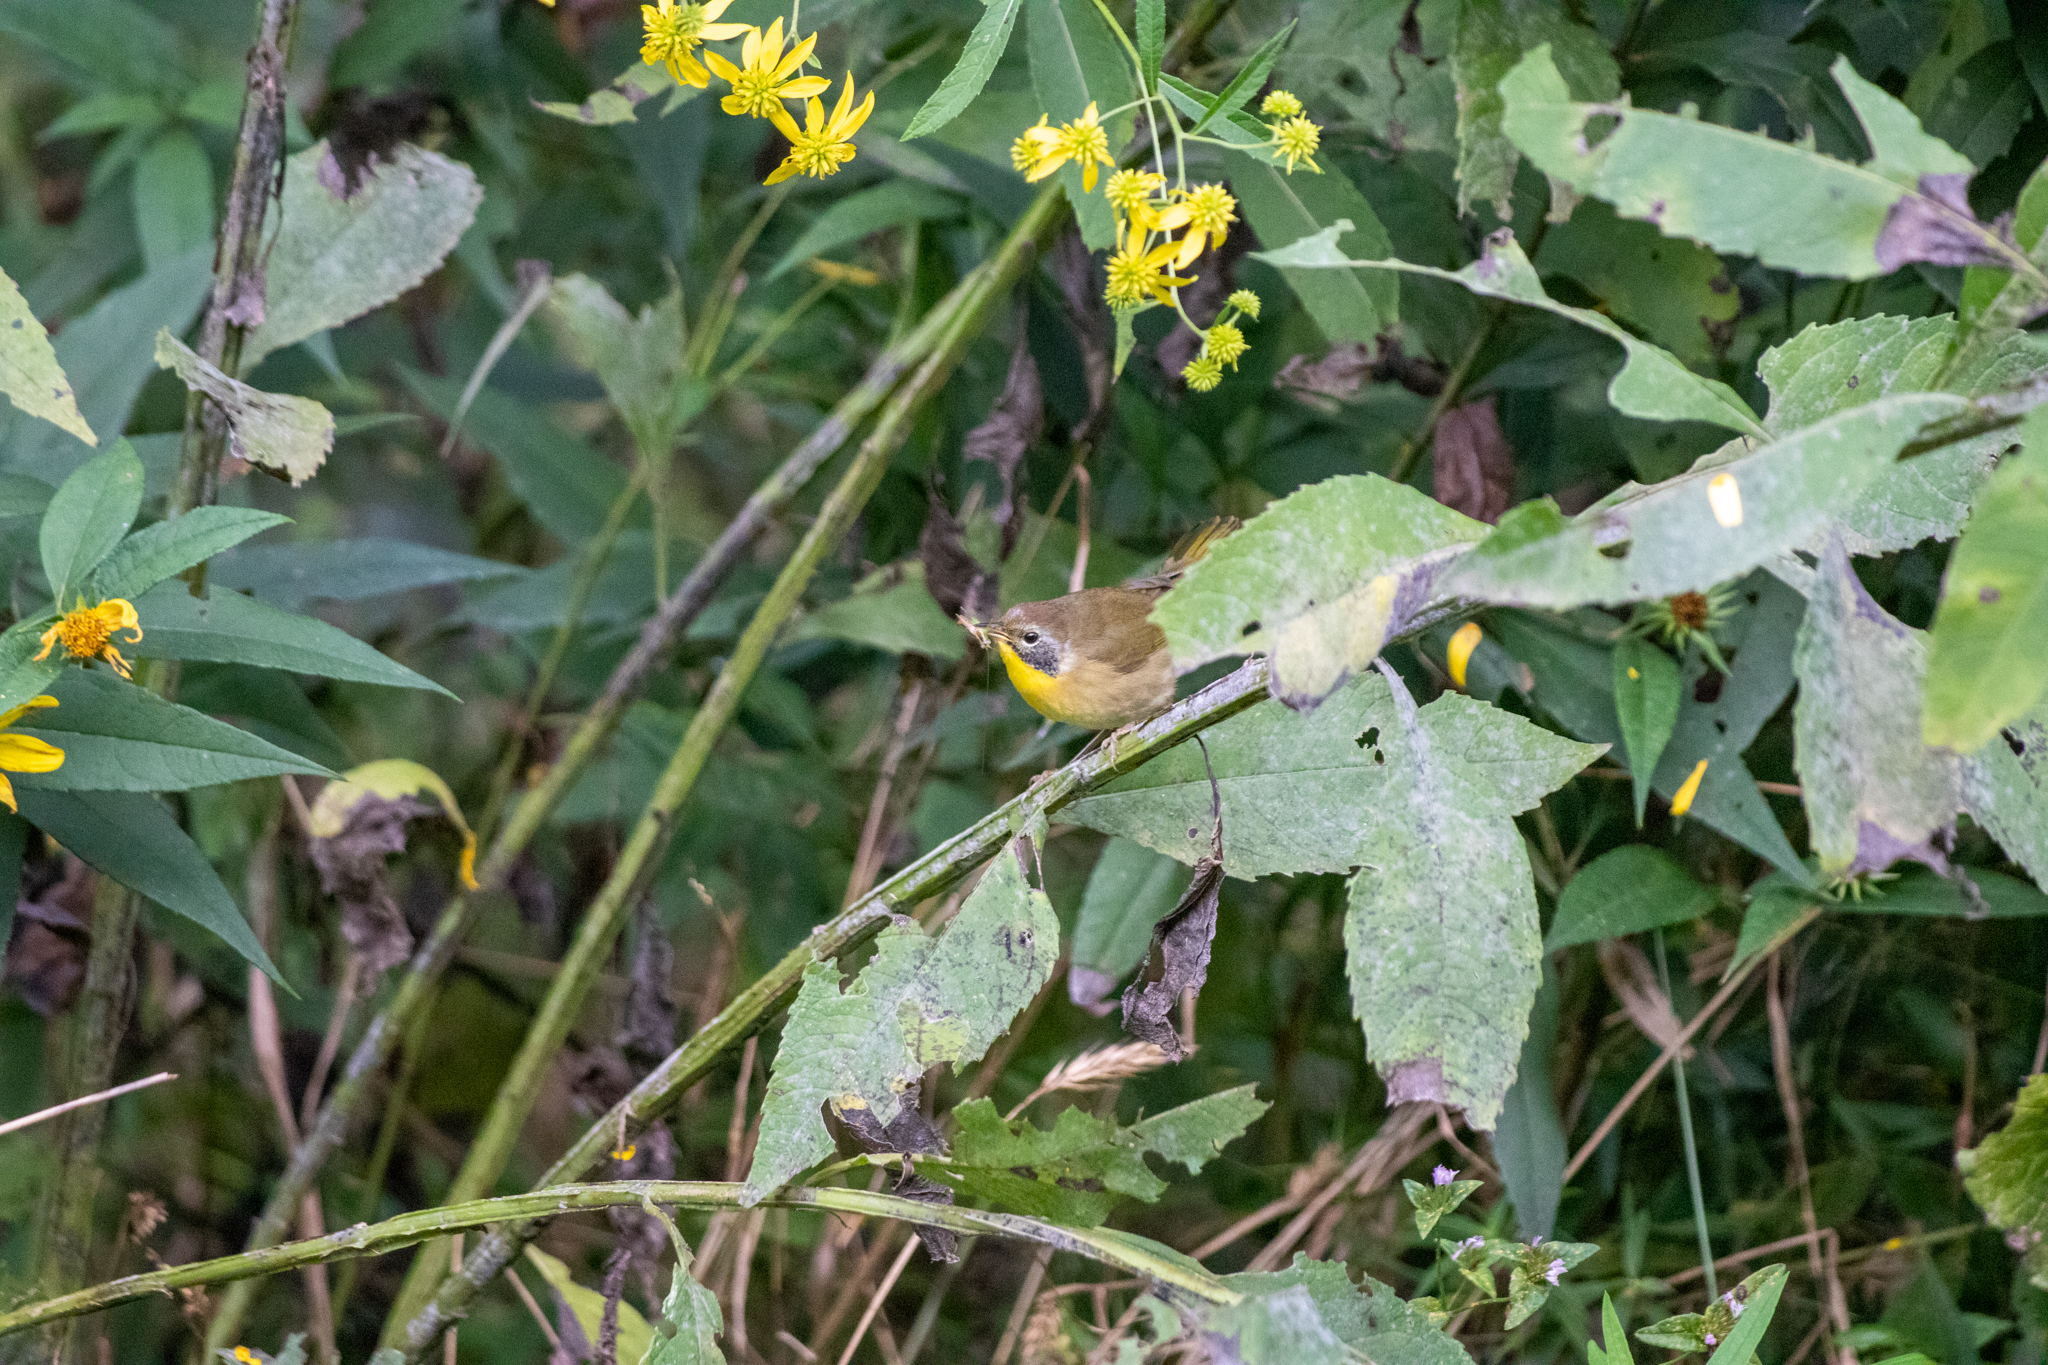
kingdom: Animalia
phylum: Chordata
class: Aves
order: Passeriformes
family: Parulidae
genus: Geothlypis
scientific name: Geothlypis trichas
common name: Common yellowthroat
